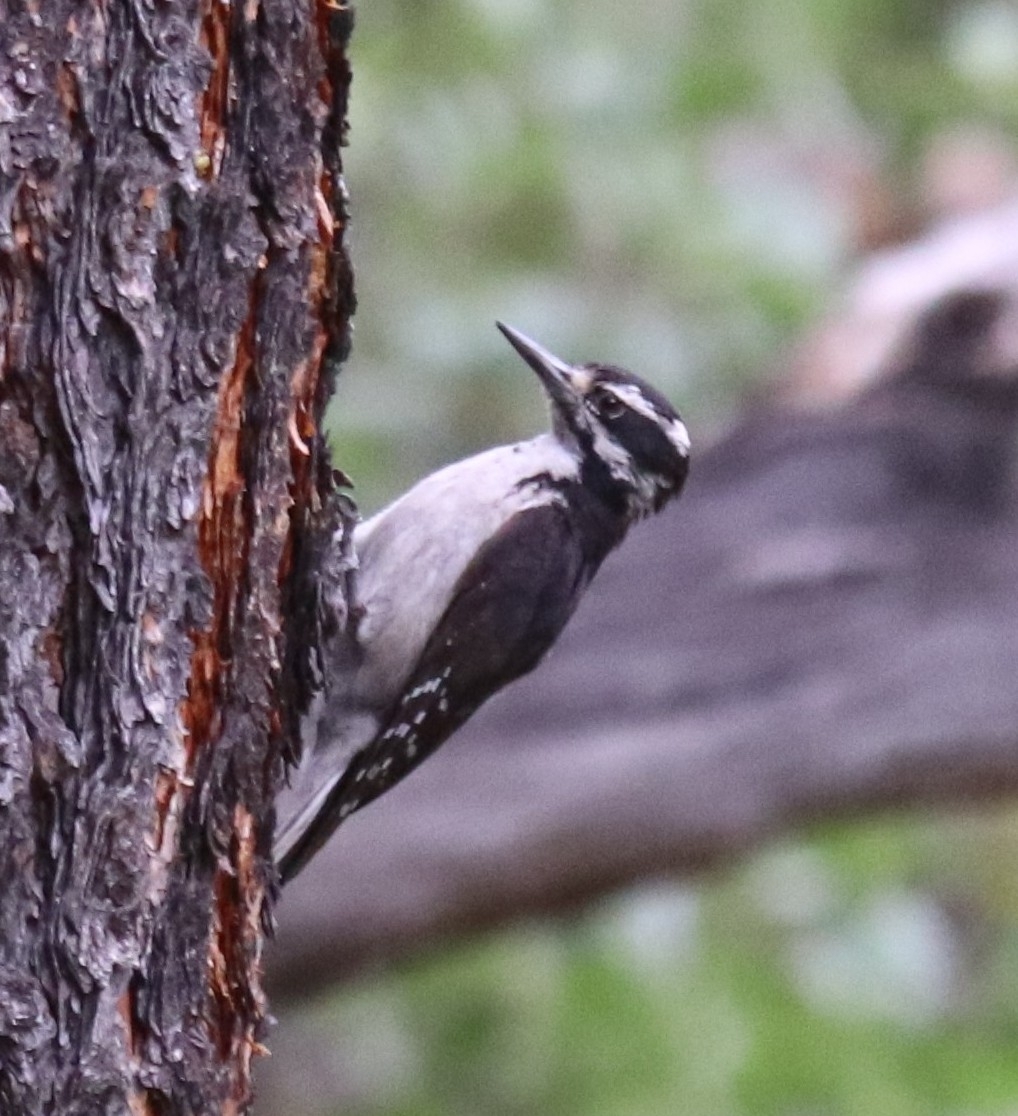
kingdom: Animalia
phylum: Chordata
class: Aves
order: Piciformes
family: Picidae
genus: Leuconotopicus
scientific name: Leuconotopicus villosus
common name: Hairy woodpecker
